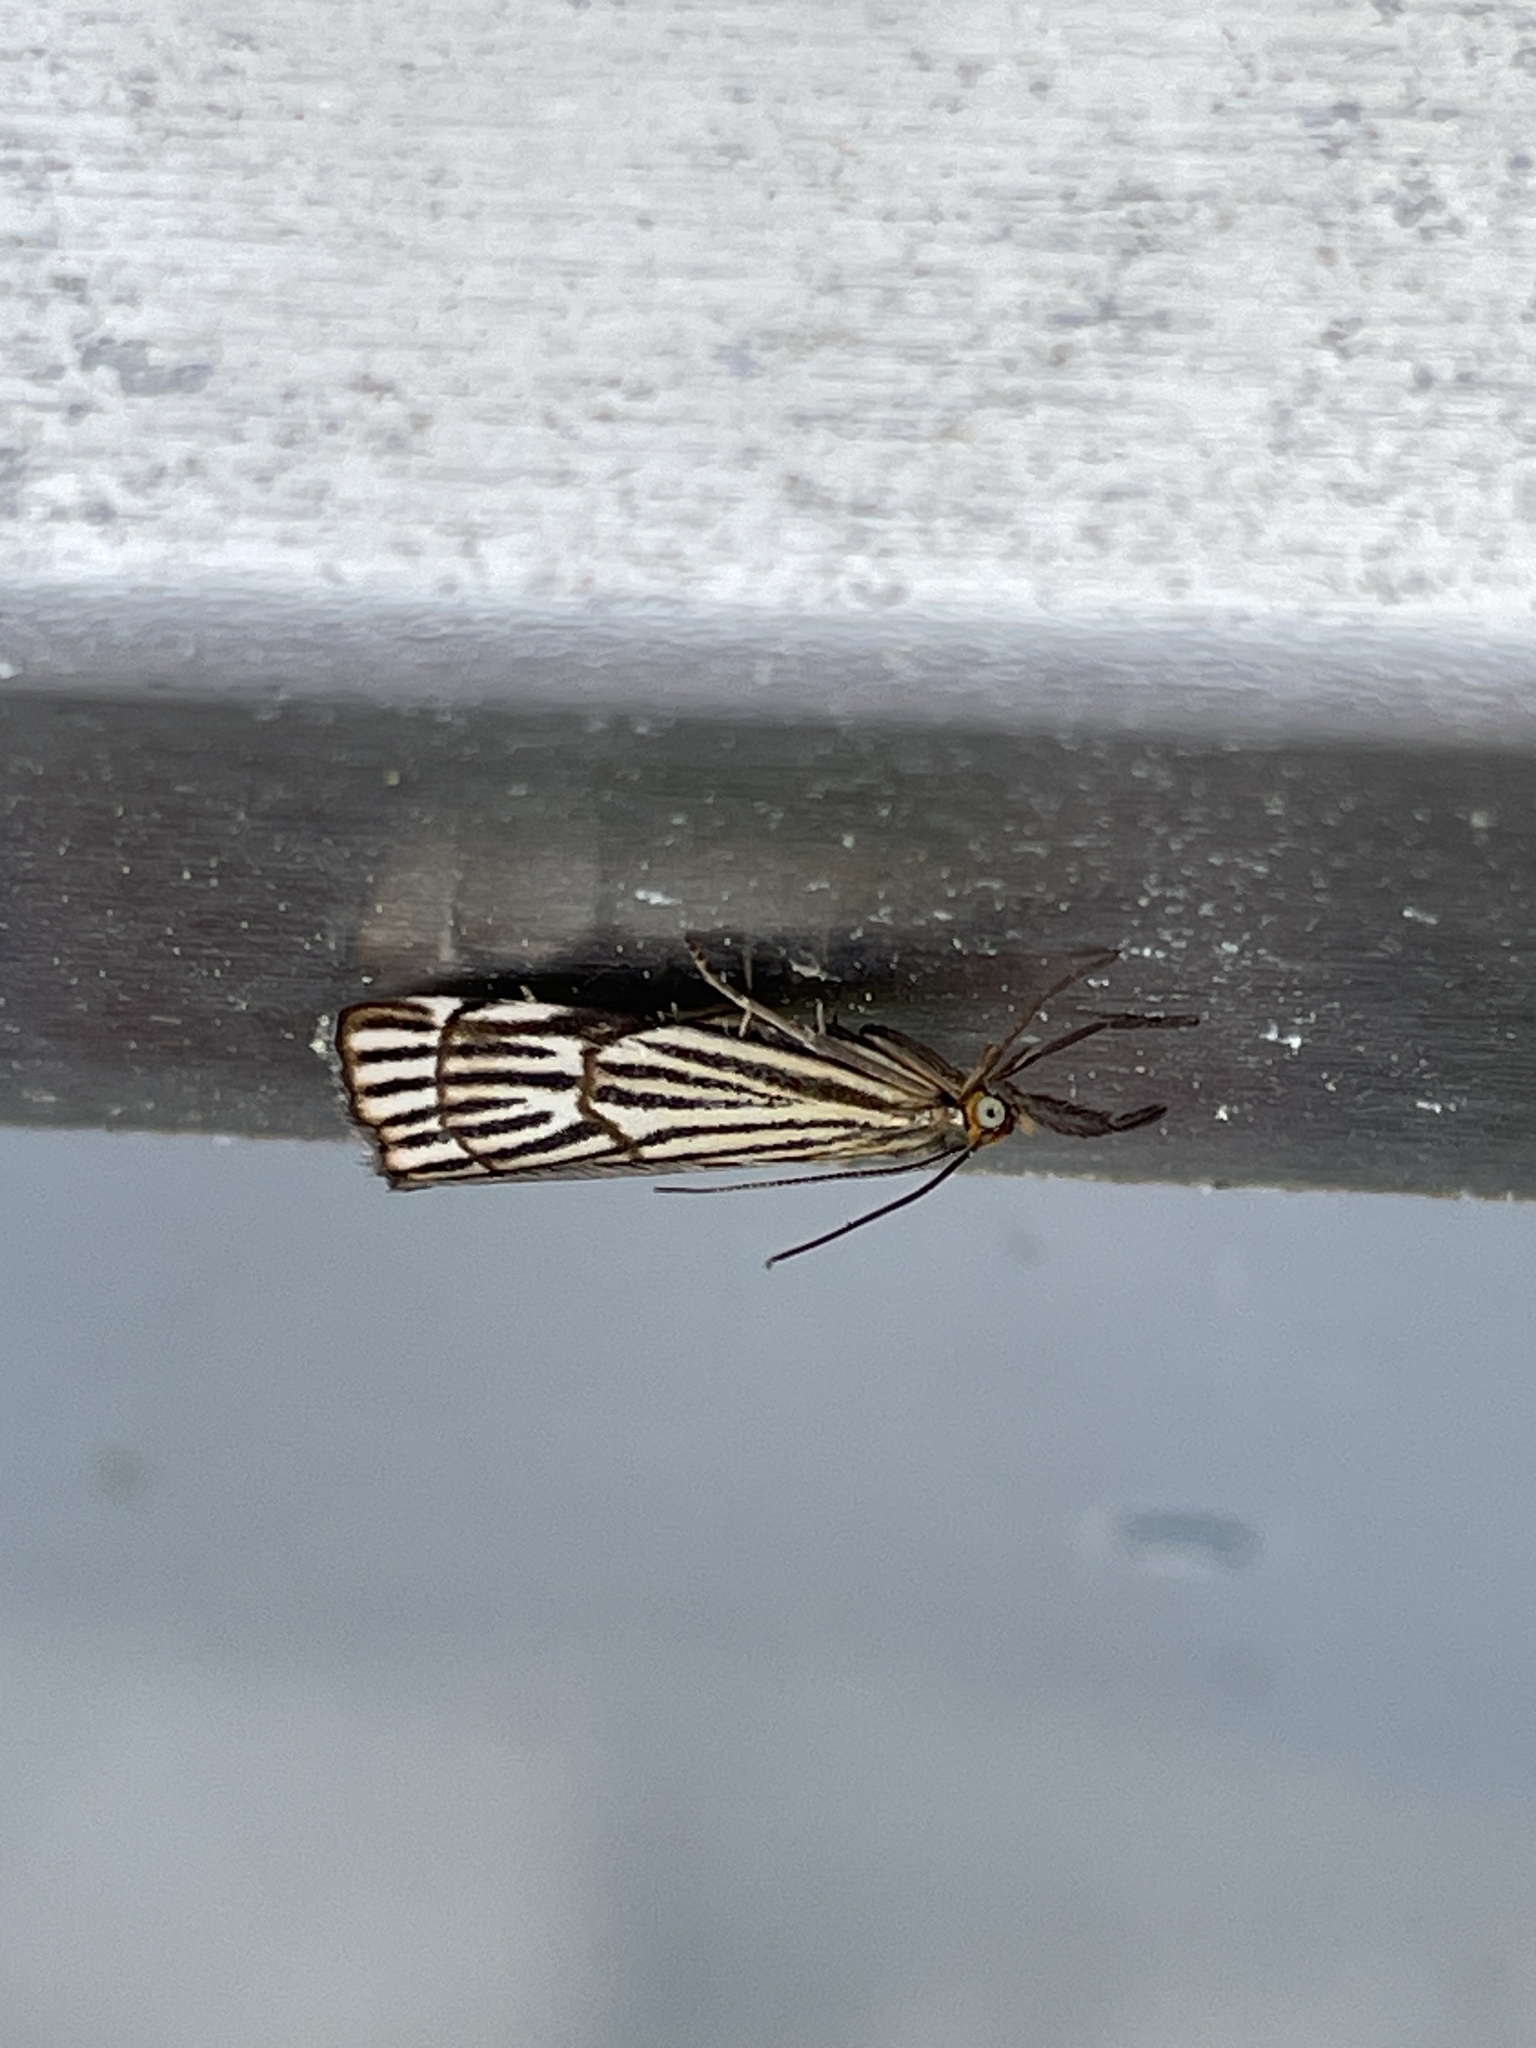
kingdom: Animalia
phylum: Arthropoda
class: Insecta
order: Lepidoptera
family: Crambidae
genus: Chrysocrambus
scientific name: Chrysocrambus Chrysocramboides craterellus
